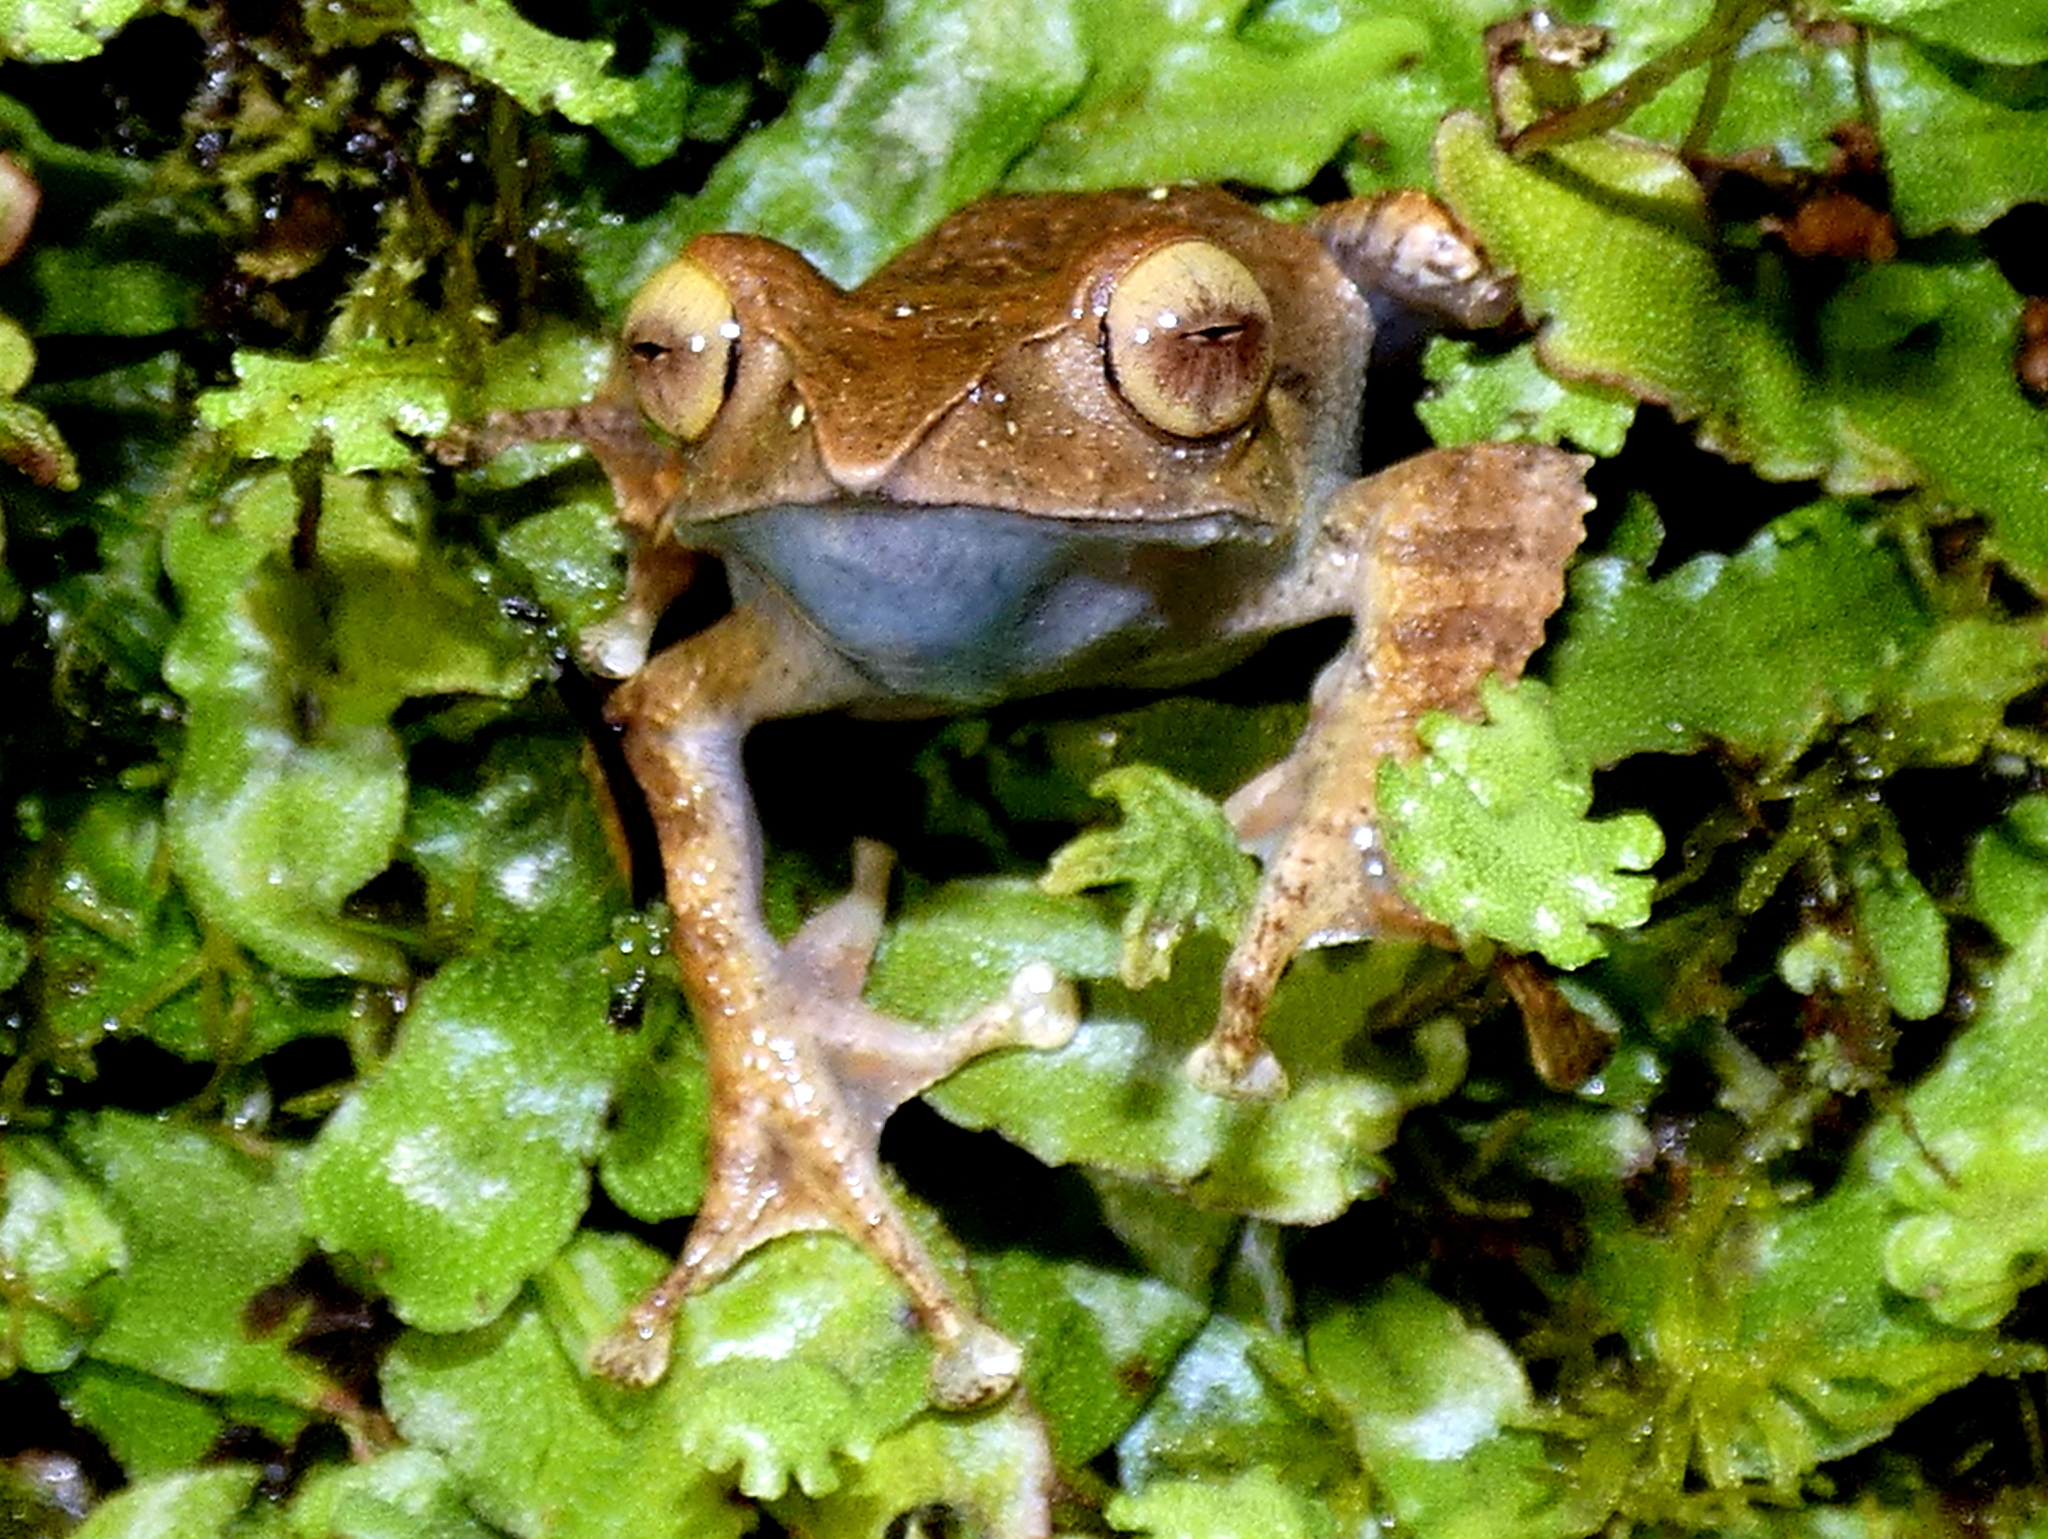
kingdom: Animalia
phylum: Chordata
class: Amphibia
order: Anura
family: Mantellidae
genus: Boophis
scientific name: Boophis madagascariensis
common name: Madagascar bright-eyed frog
